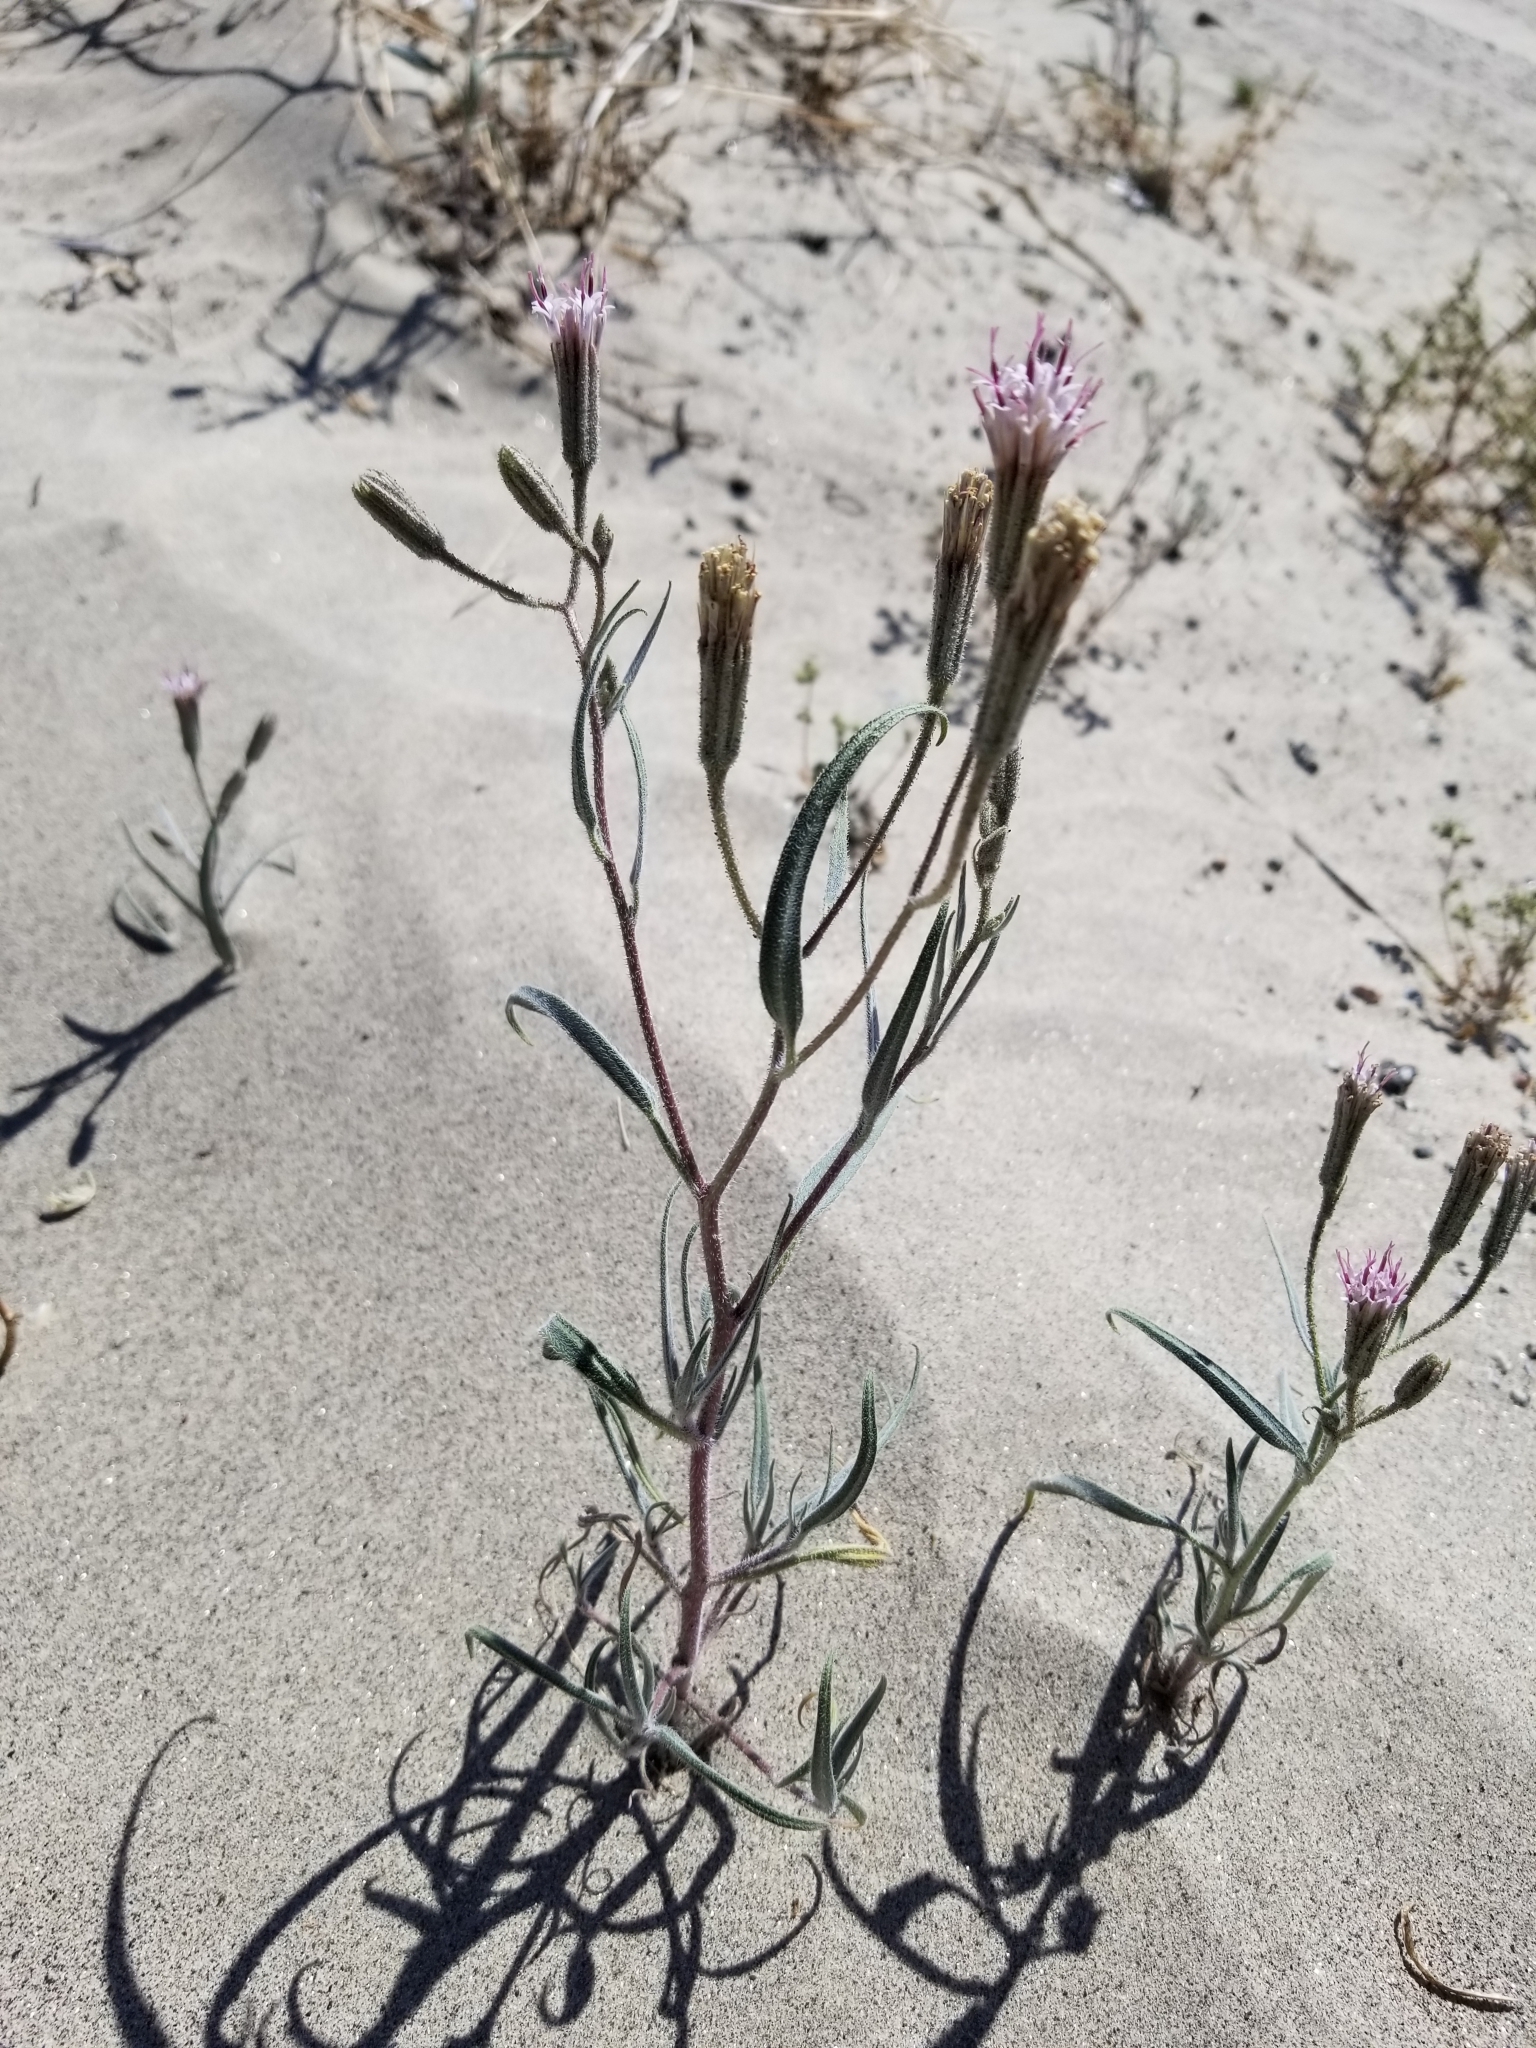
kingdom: Plantae
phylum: Tracheophyta
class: Magnoliopsida
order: Asterales
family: Asteraceae
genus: Palafoxia
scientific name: Palafoxia arida
